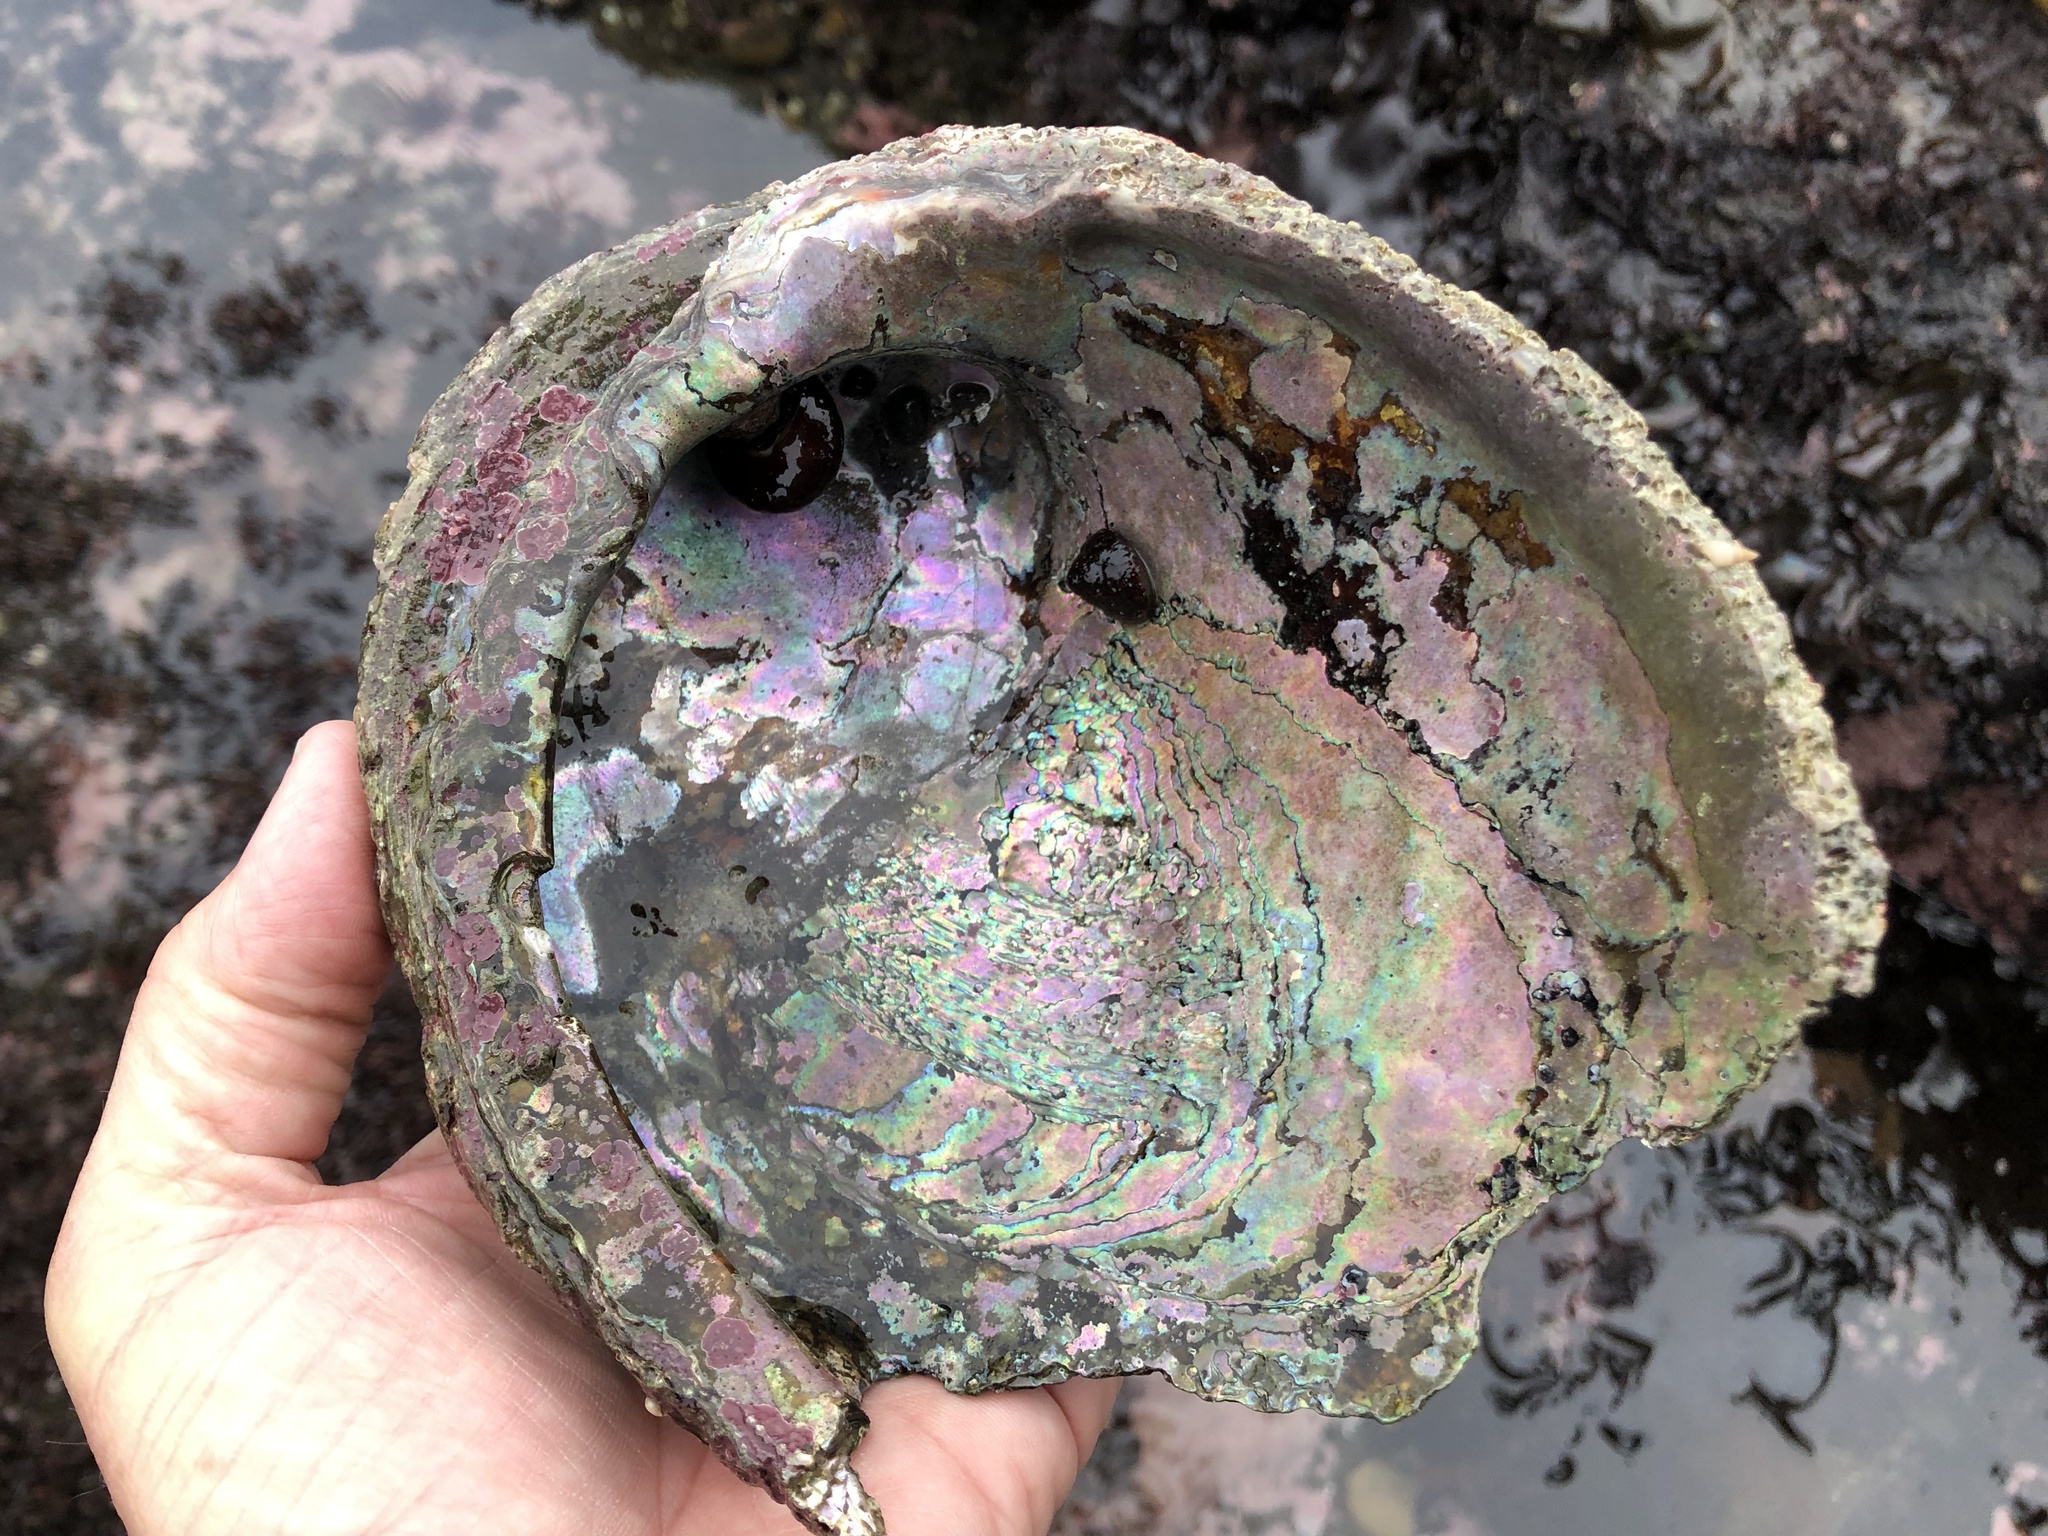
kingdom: Animalia
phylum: Mollusca
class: Gastropoda
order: Lepetellida
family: Haliotidae
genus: Haliotis
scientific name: Haliotis rufescens
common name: Red abalone
